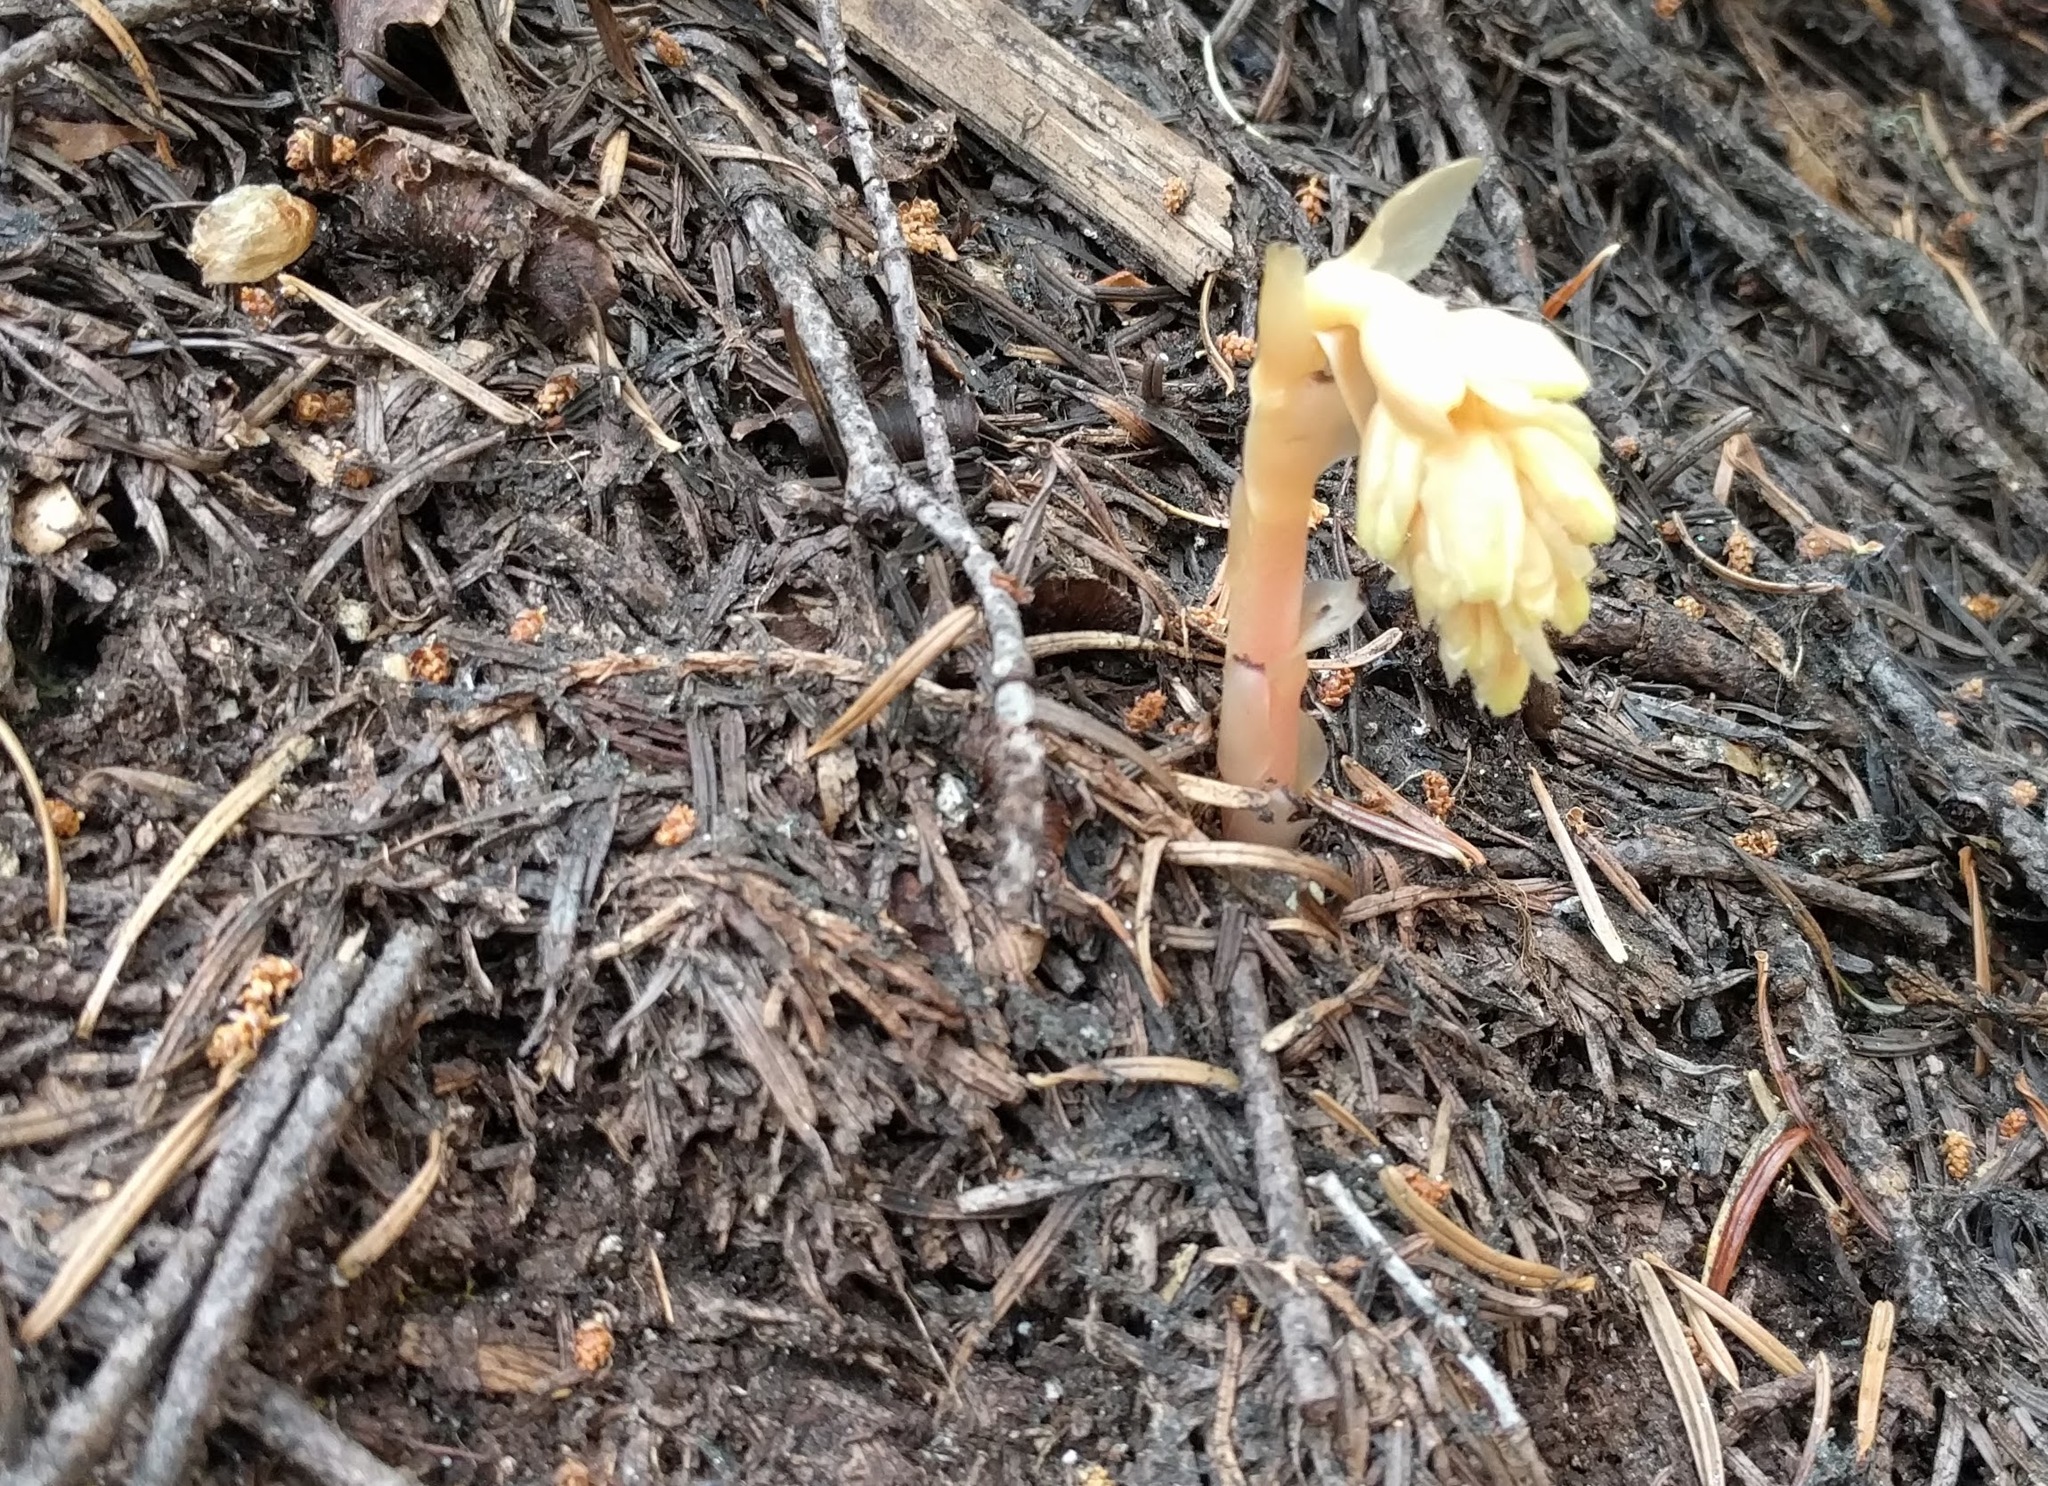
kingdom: Plantae
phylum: Tracheophyta
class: Magnoliopsida
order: Ericales
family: Ericaceae
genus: Hypopitys
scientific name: Hypopitys monotropa
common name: Yellow bird's-nest
